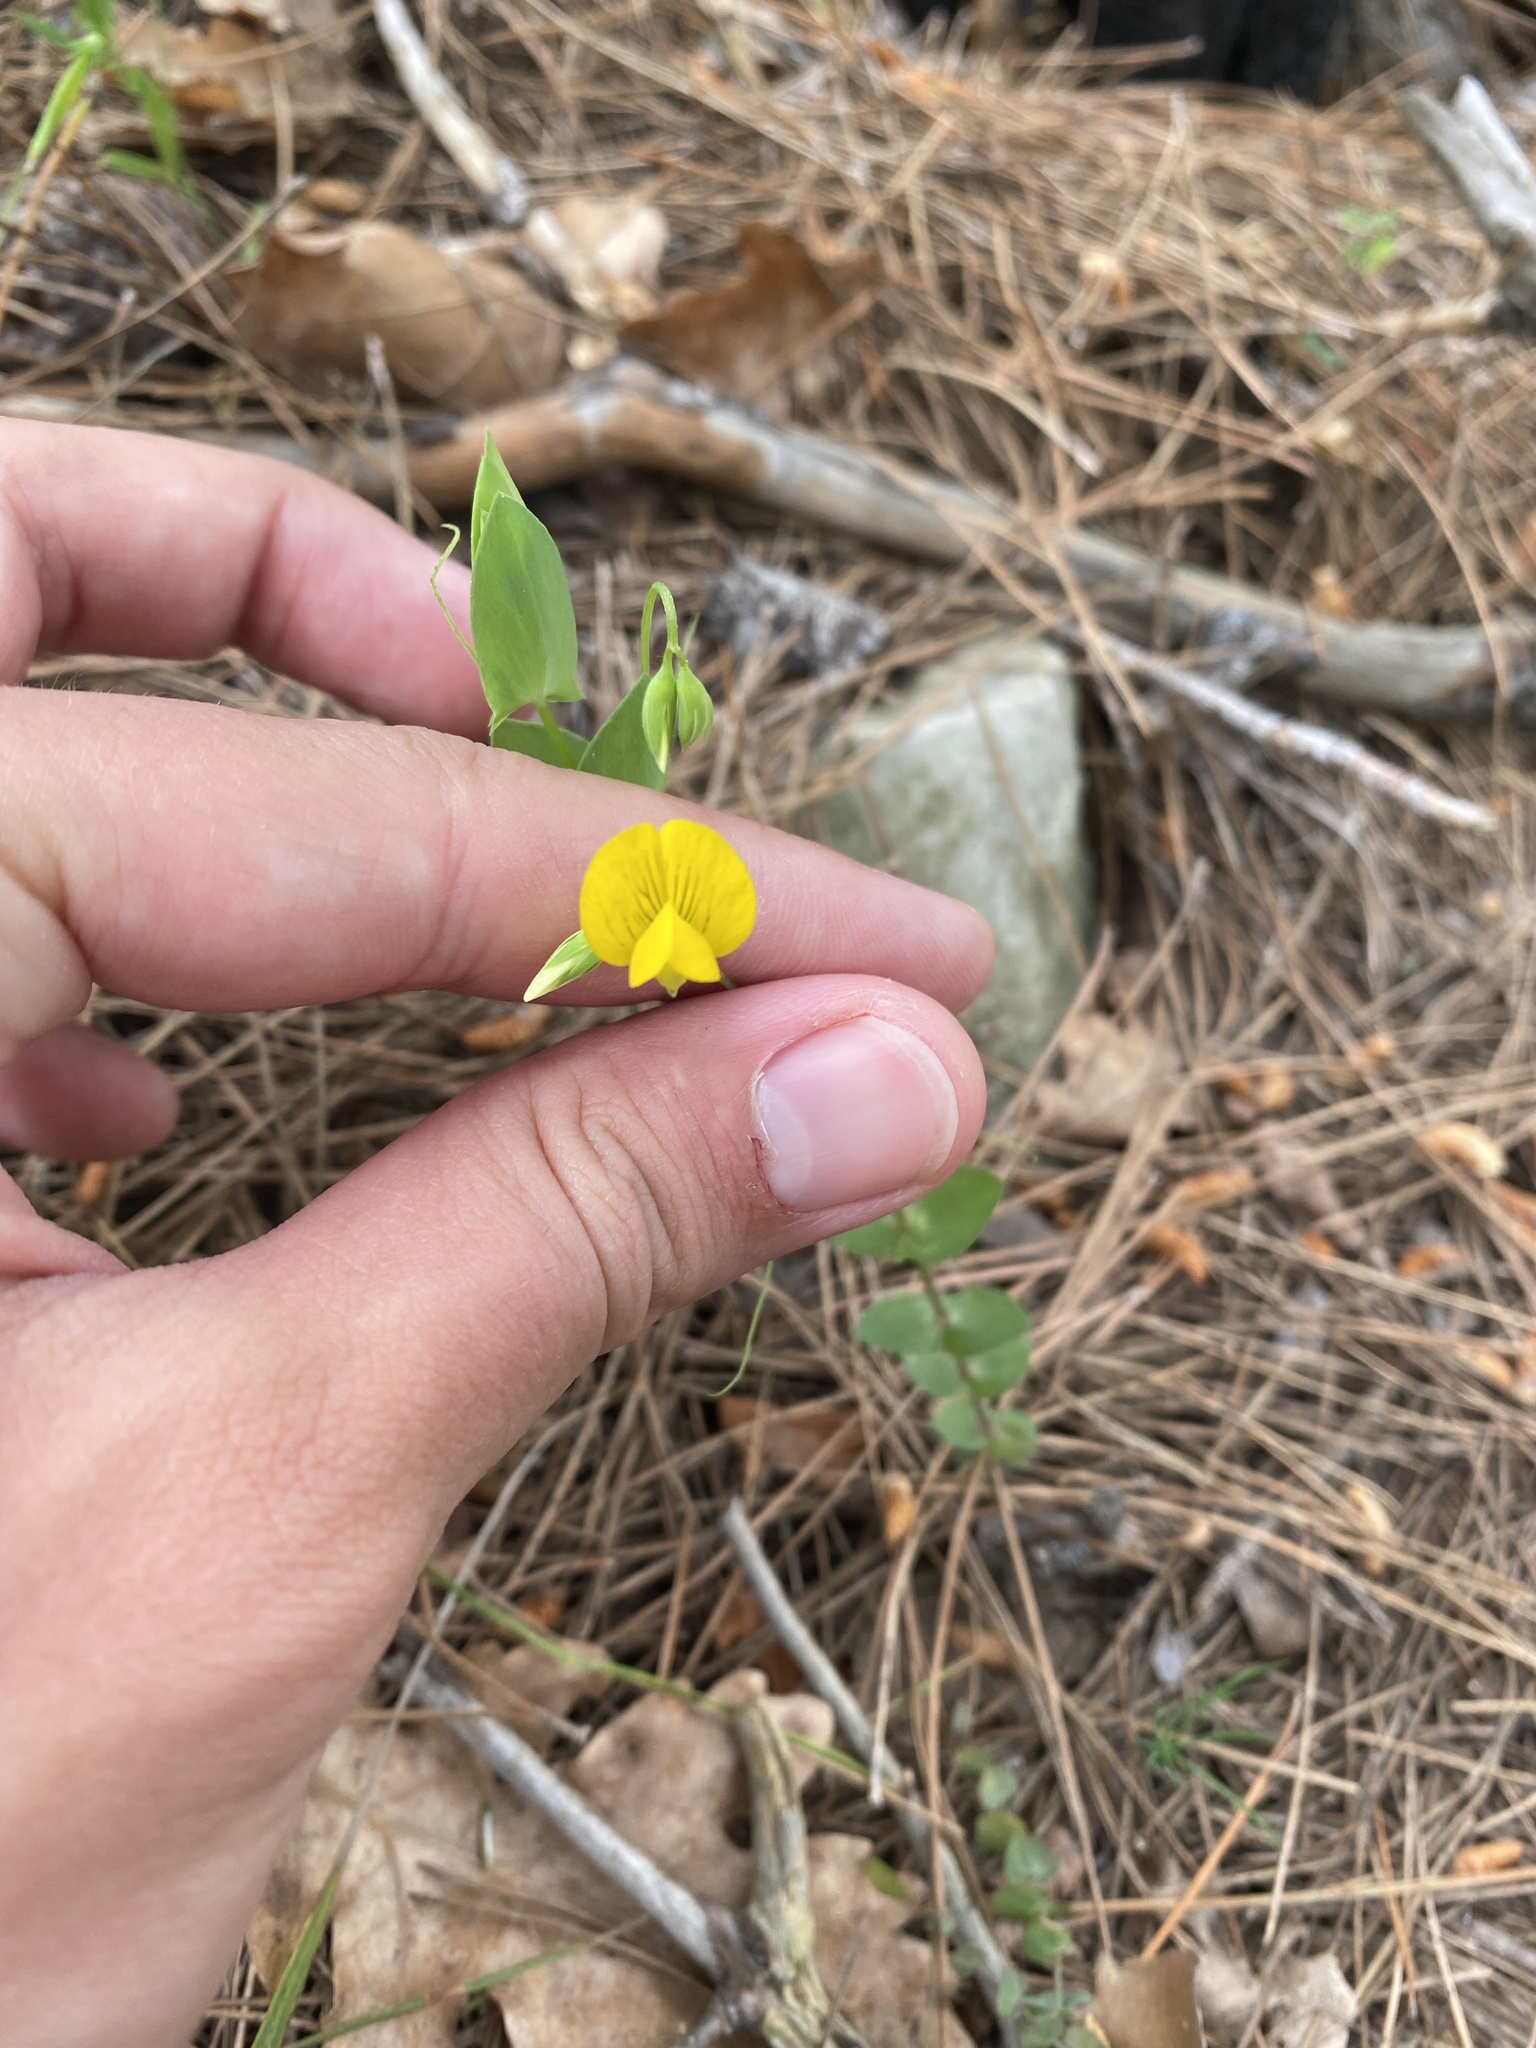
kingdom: Plantae
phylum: Tracheophyta
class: Magnoliopsida
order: Fabales
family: Fabaceae
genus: Lathyrus
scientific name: Lathyrus aphaca
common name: Yellow vetchling
